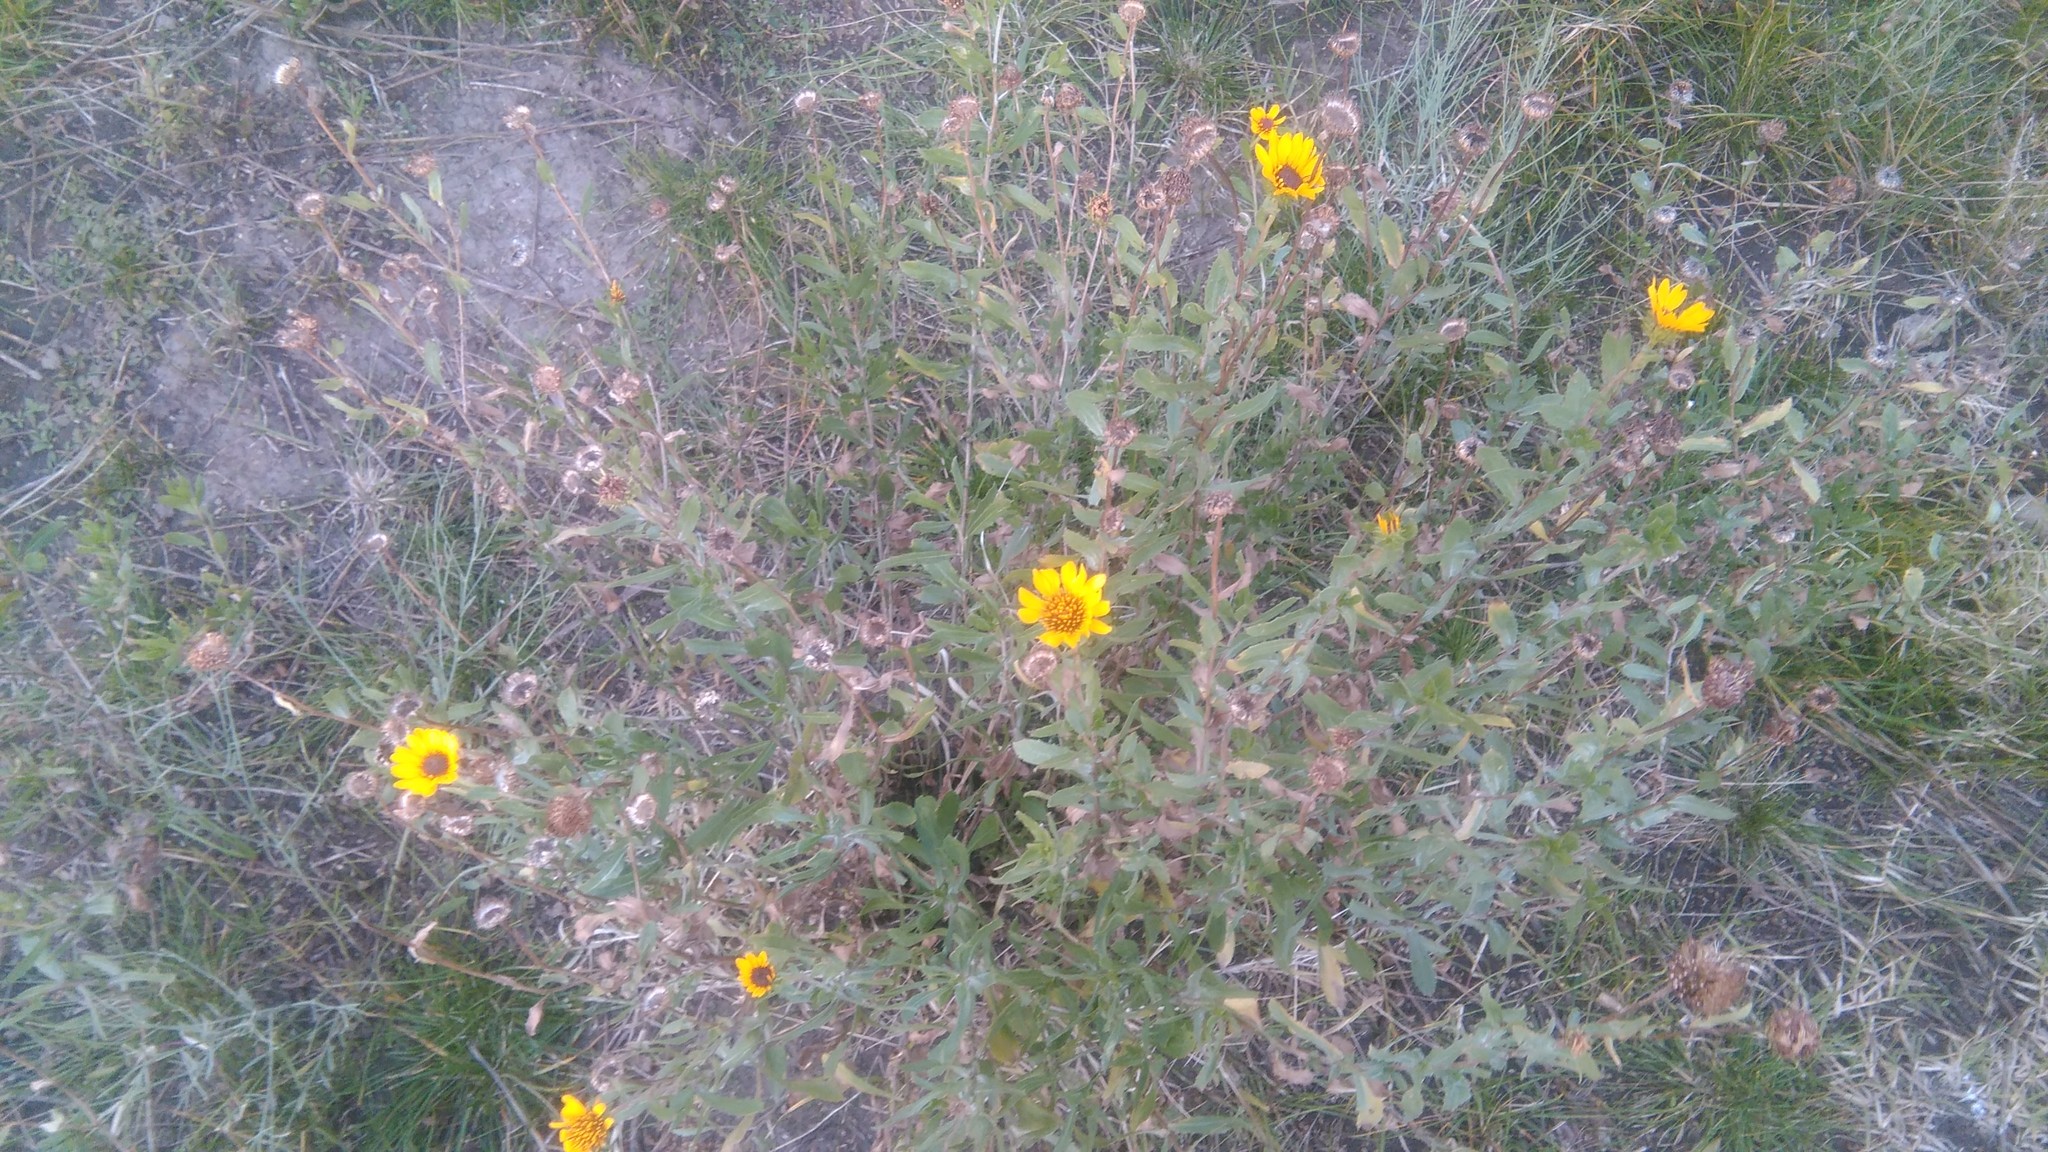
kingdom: Plantae
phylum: Tracheophyta
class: Magnoliopsida
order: Asterales
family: Asteraceae
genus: Grindelia
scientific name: Grindelia pulchella
